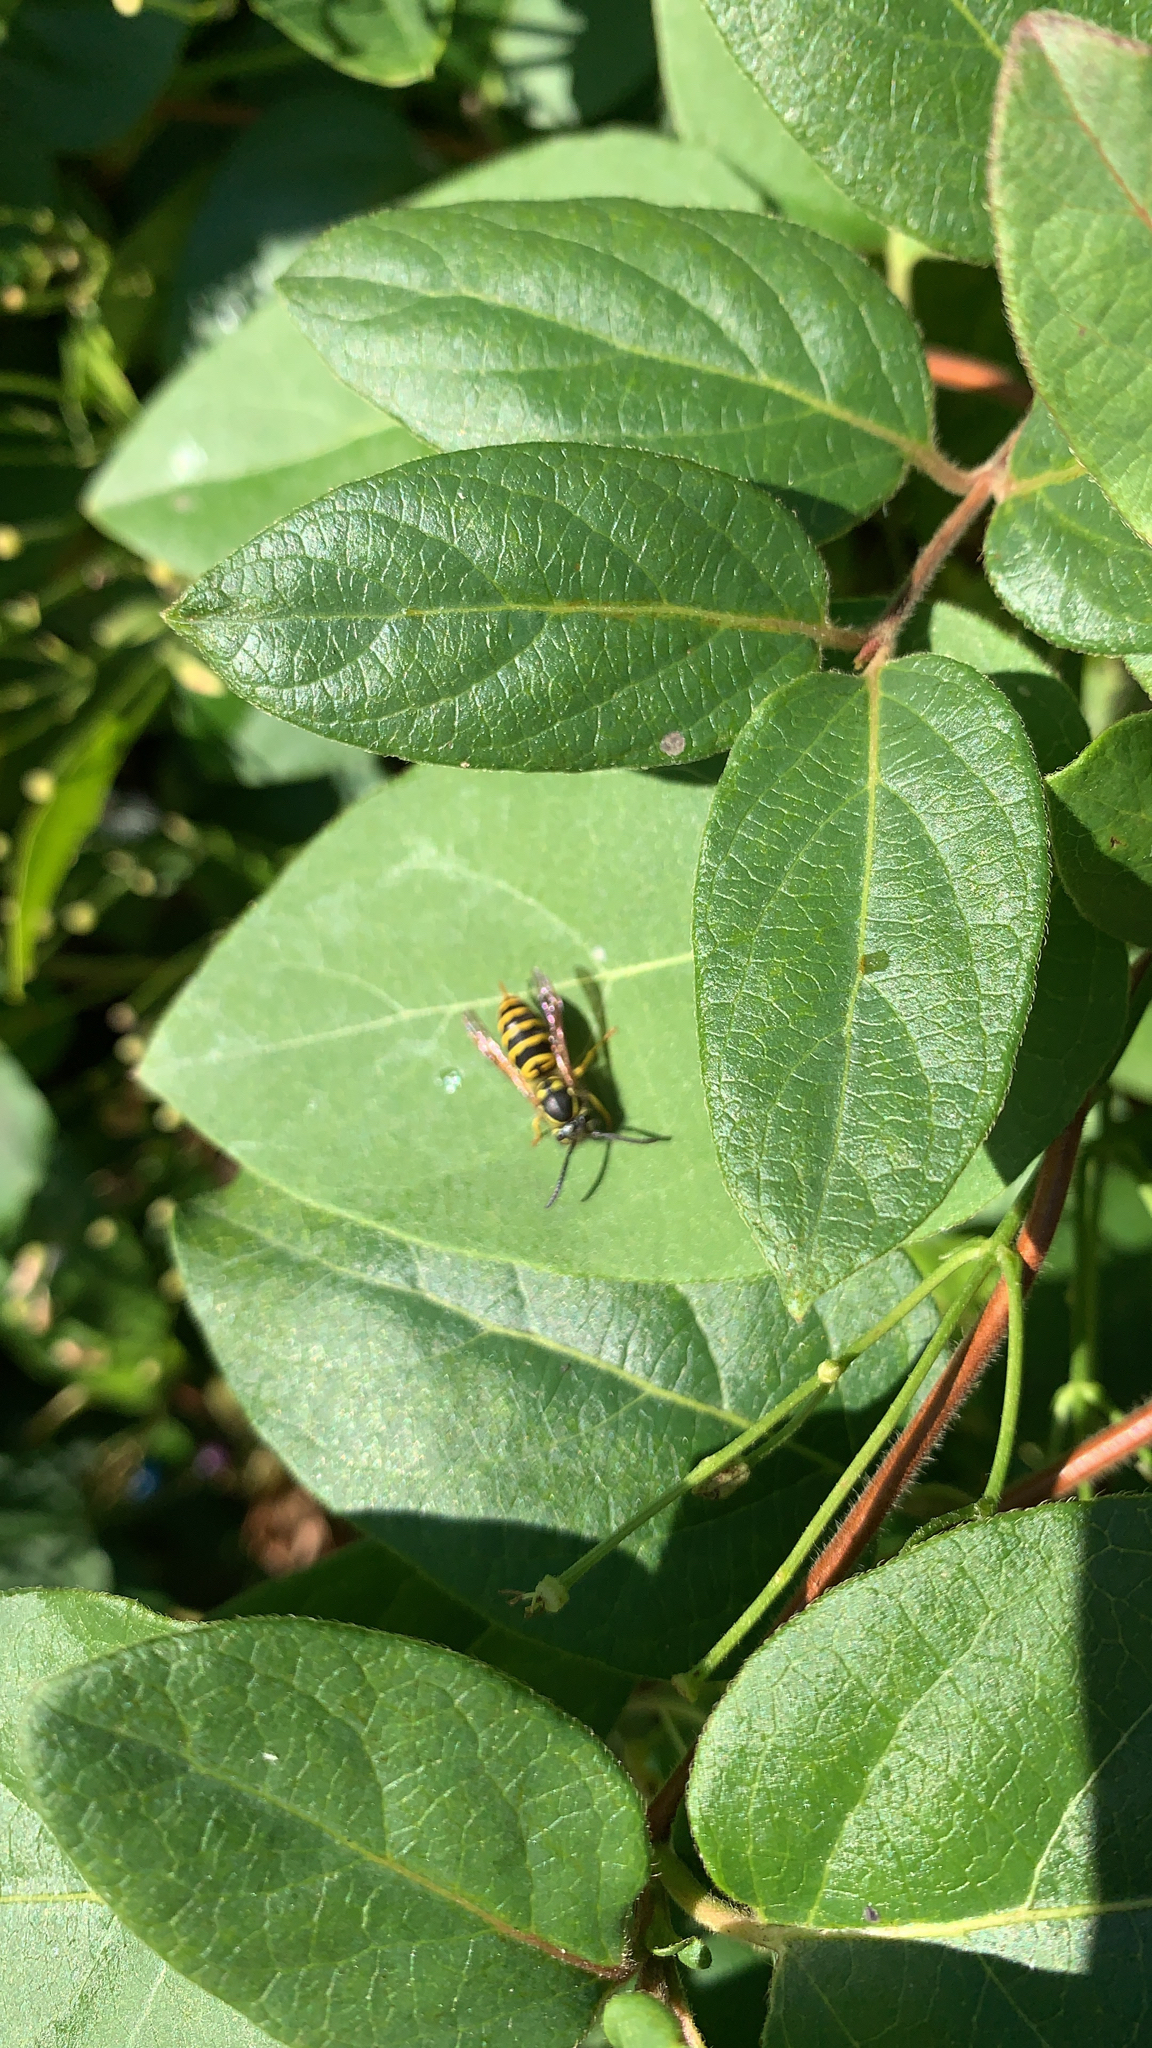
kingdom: Animalia
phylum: Arthropoda
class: Insecta
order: Hymenoptera
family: Vespidae
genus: Vespula
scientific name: Vespula maculifrons
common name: Eastern yellowjacket
